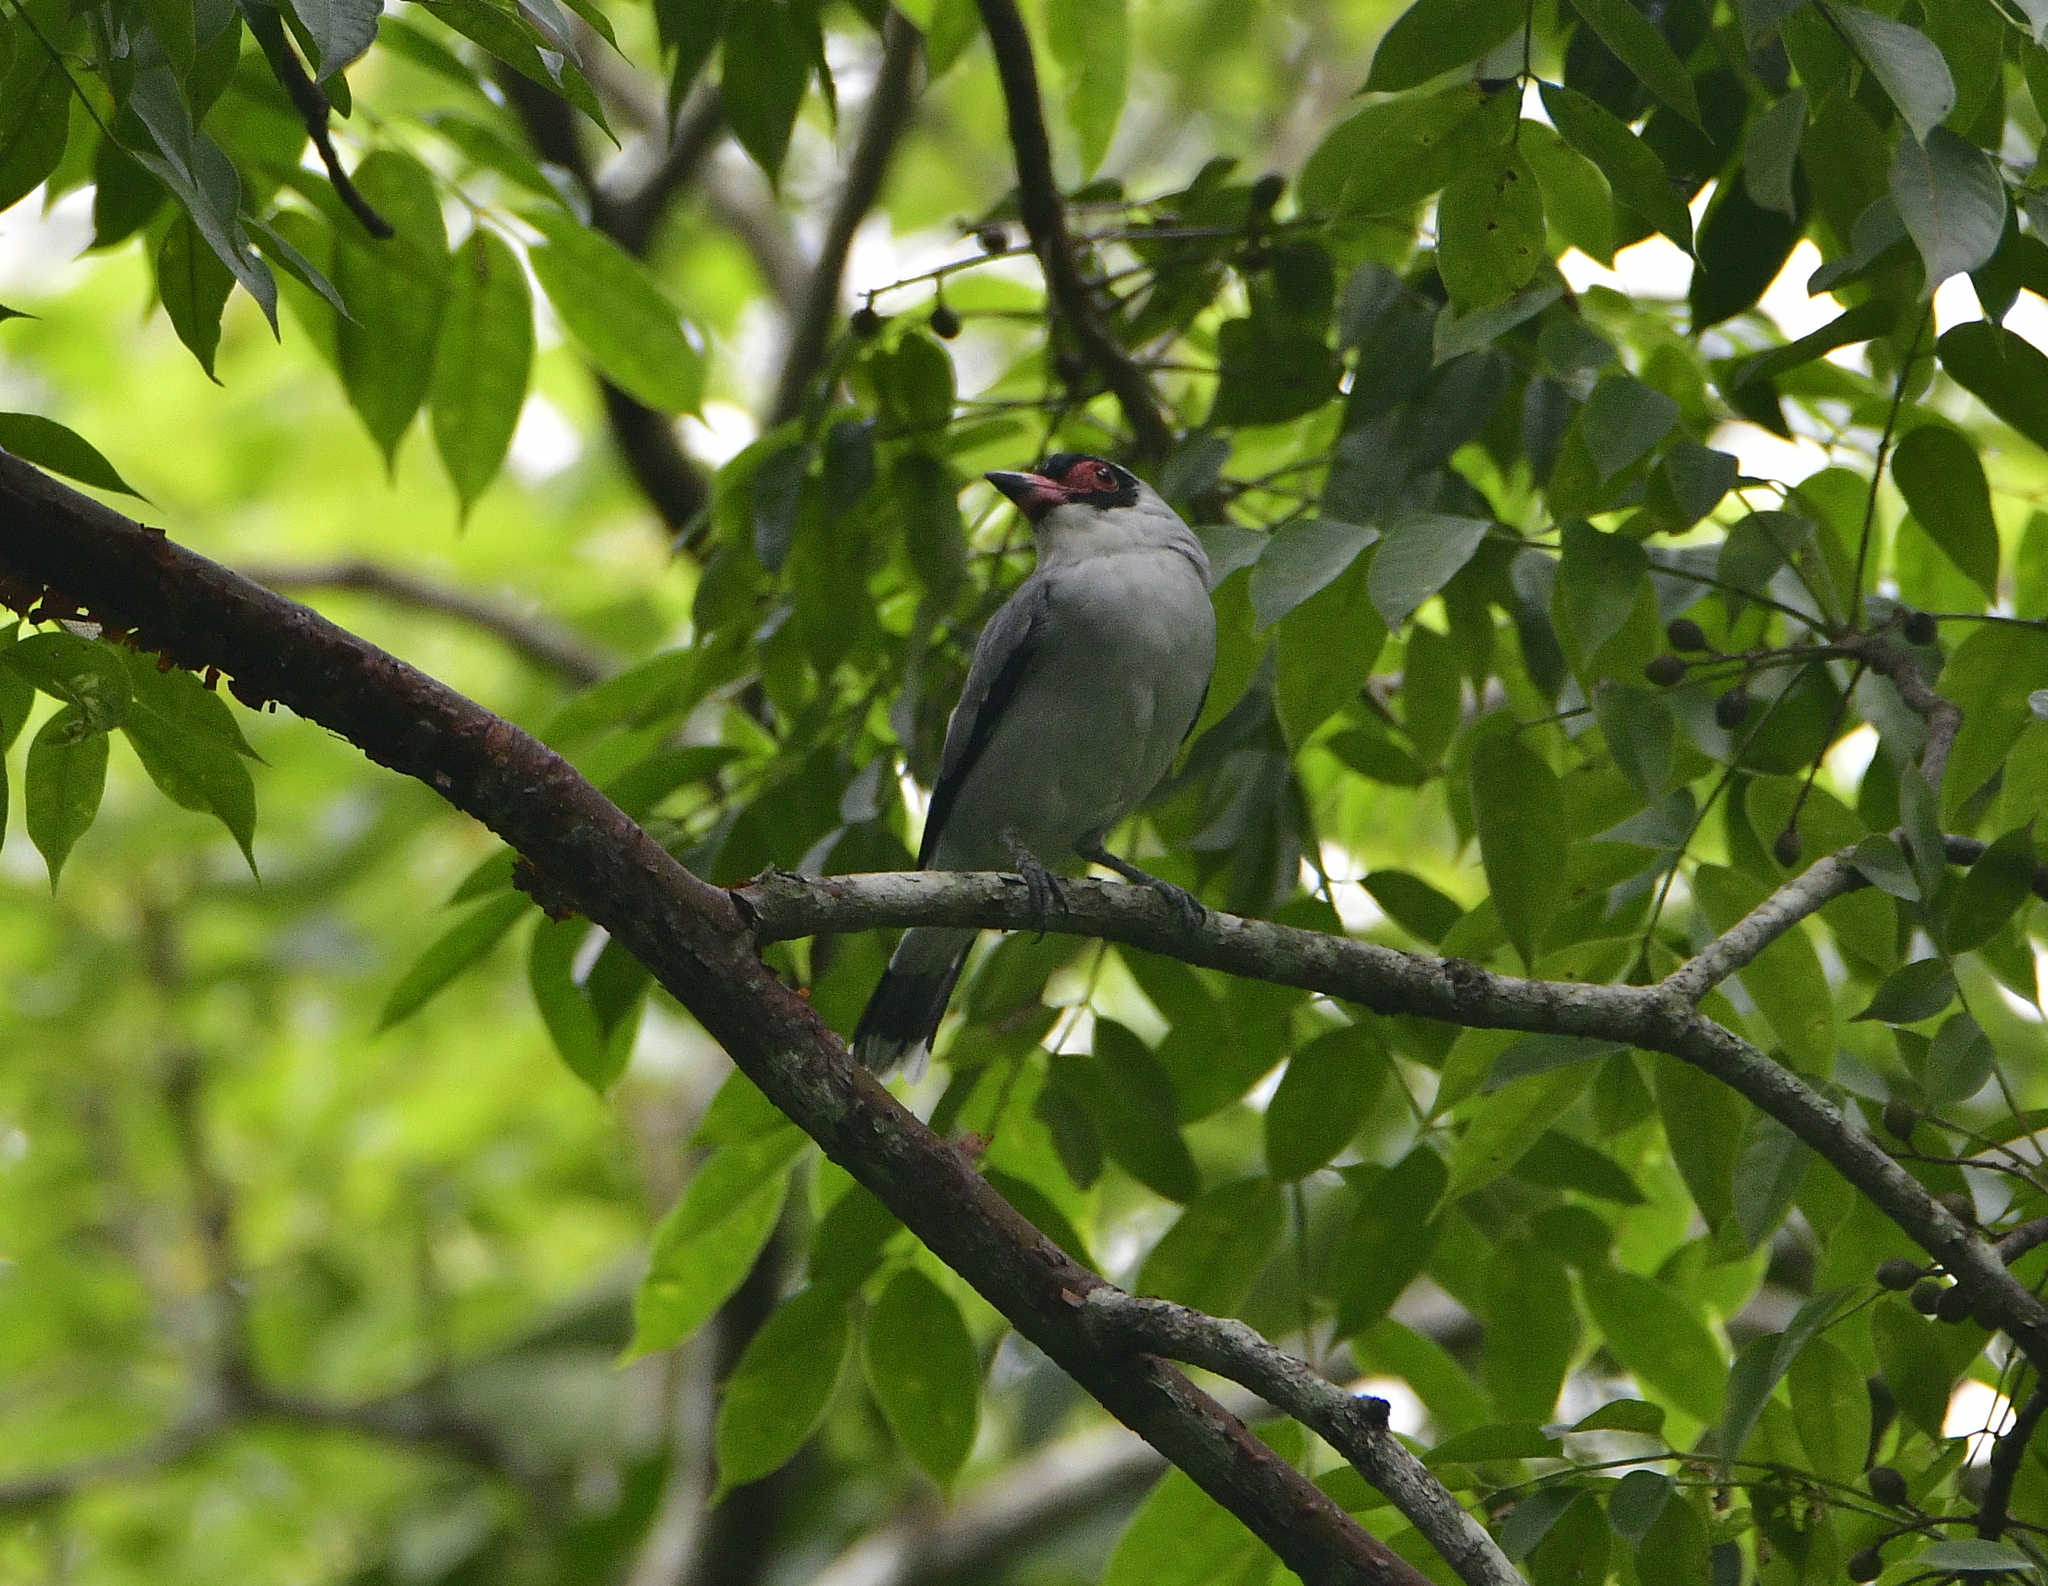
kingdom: Animalia
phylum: Chordata
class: Aves
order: Passeriformes
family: Cotingidae
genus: Tityra
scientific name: Tityra semifasciata
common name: Masked tityra
